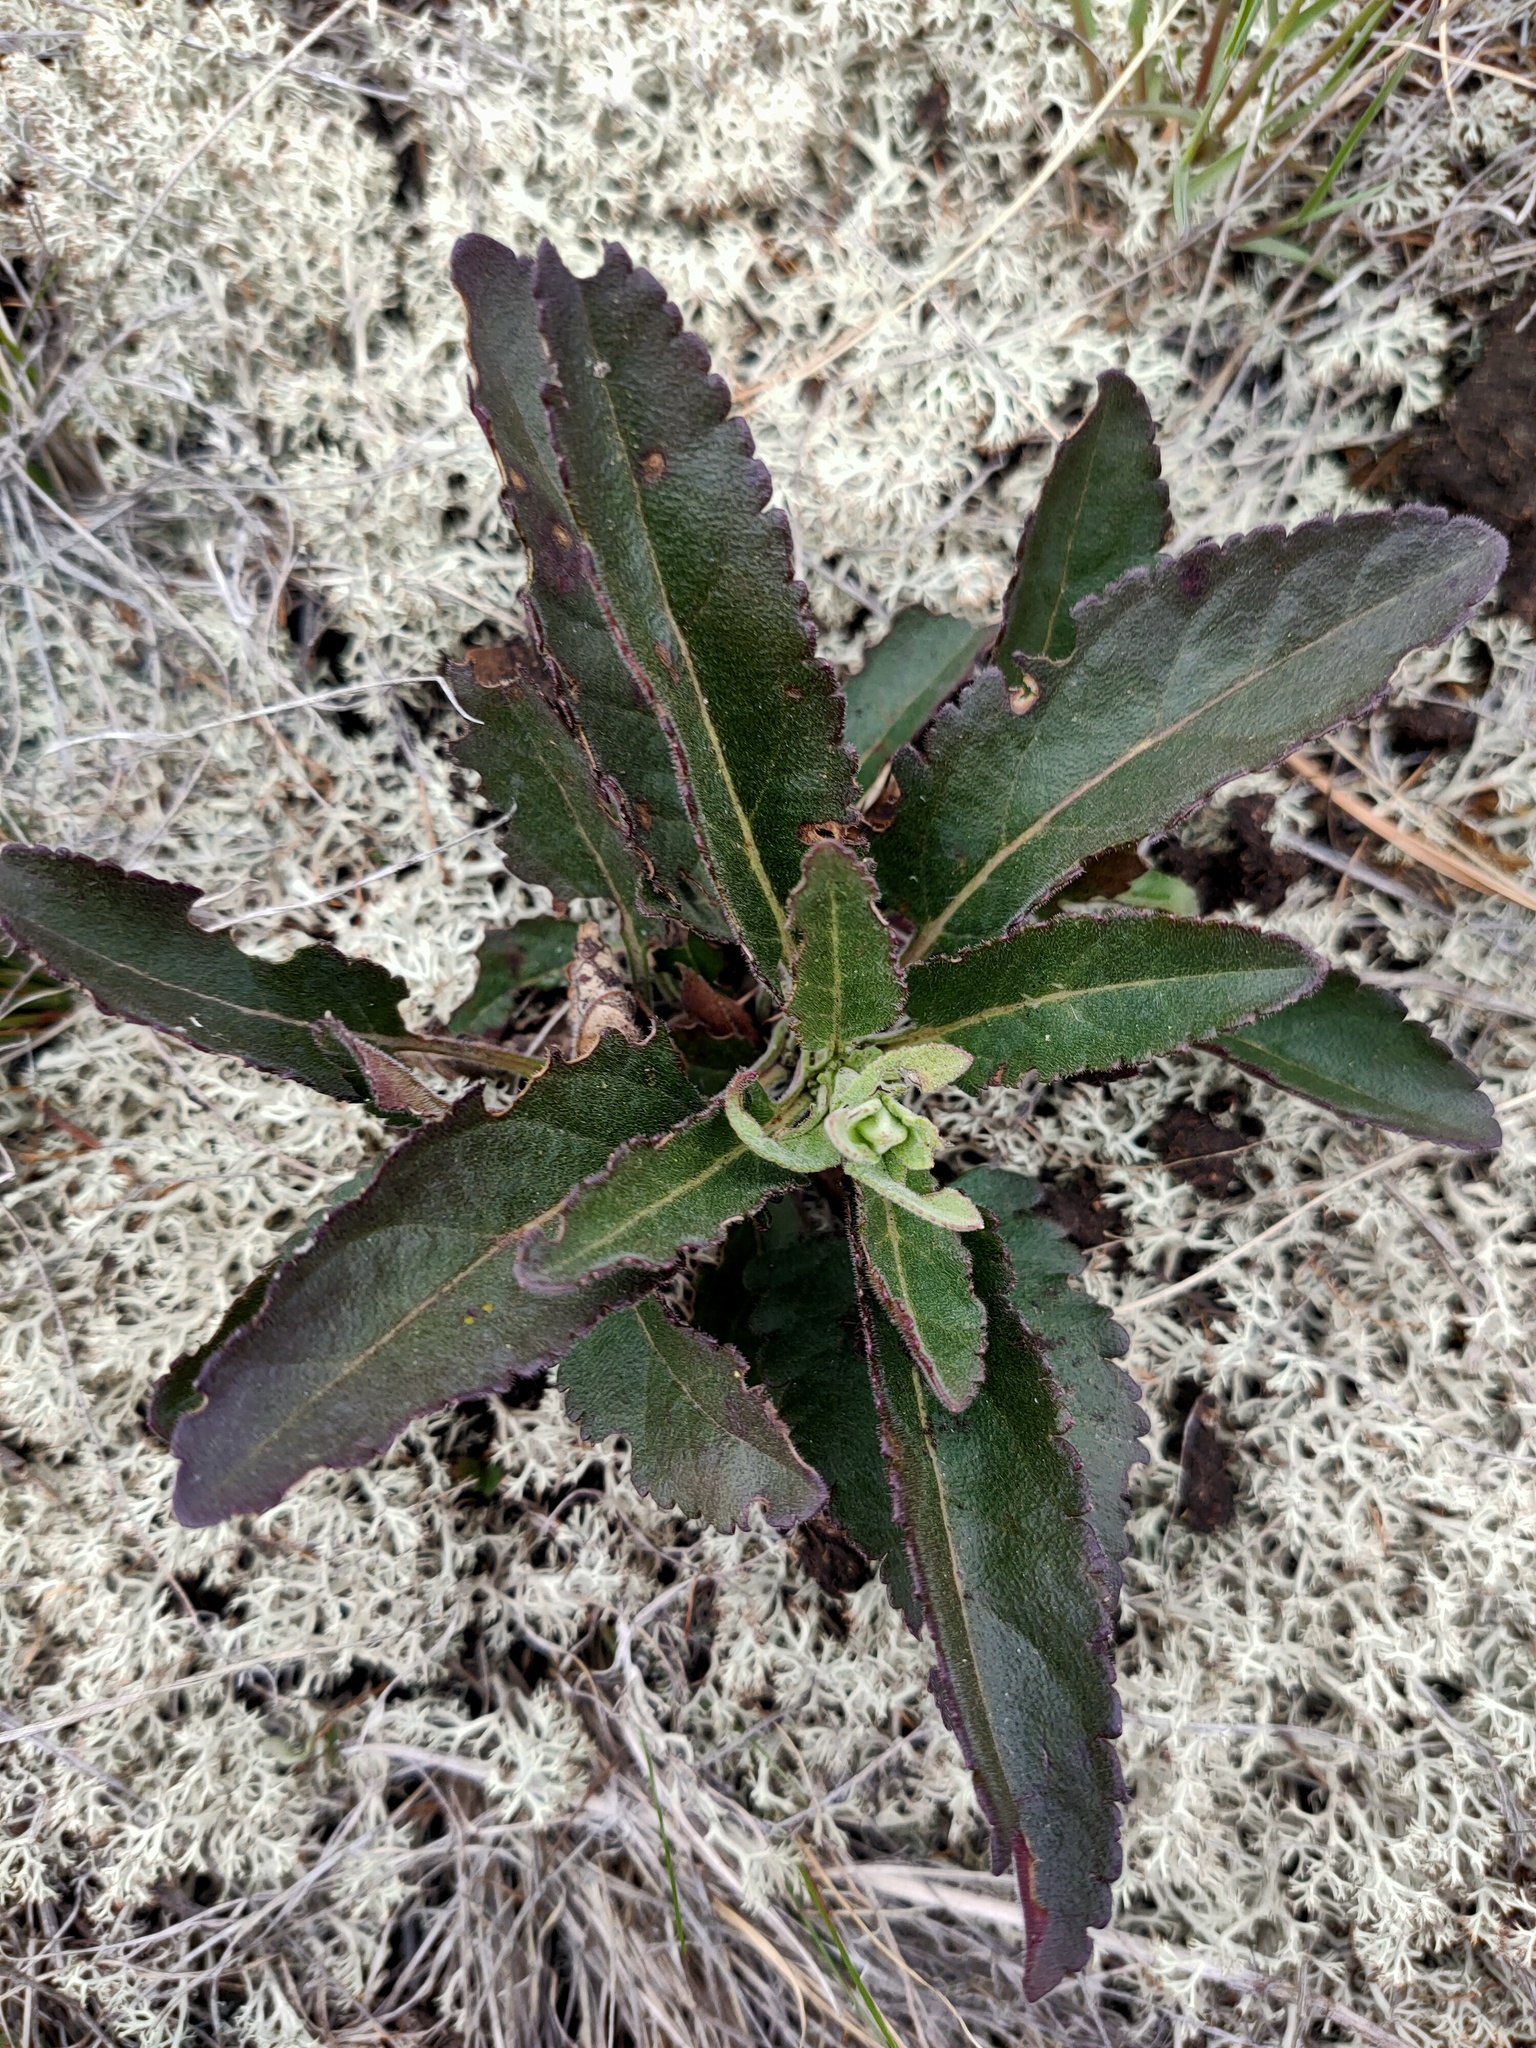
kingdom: Plantae
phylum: Tracheophyta
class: Magnoliopsida
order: Lamiales
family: Plantaginaceae
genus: Veronica
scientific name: Veronica spicata
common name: Spiked speedwell
